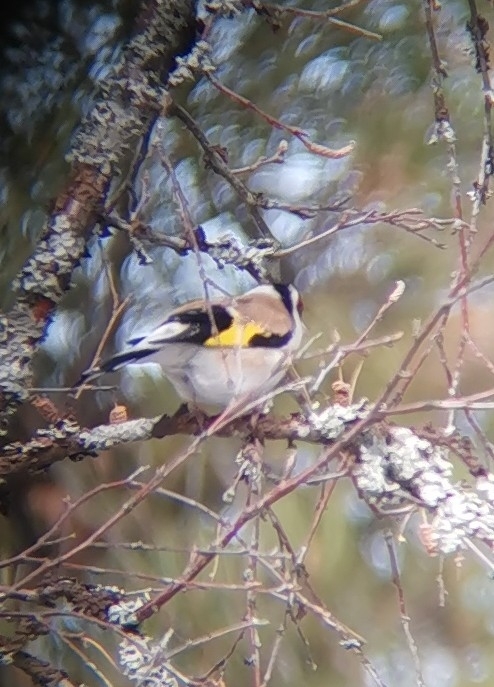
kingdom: Animalia
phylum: Chordata
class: Aves
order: Passeriformes
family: Fringillidae
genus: Carduelis
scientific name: Carduelis carduelis
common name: European goldfinch
